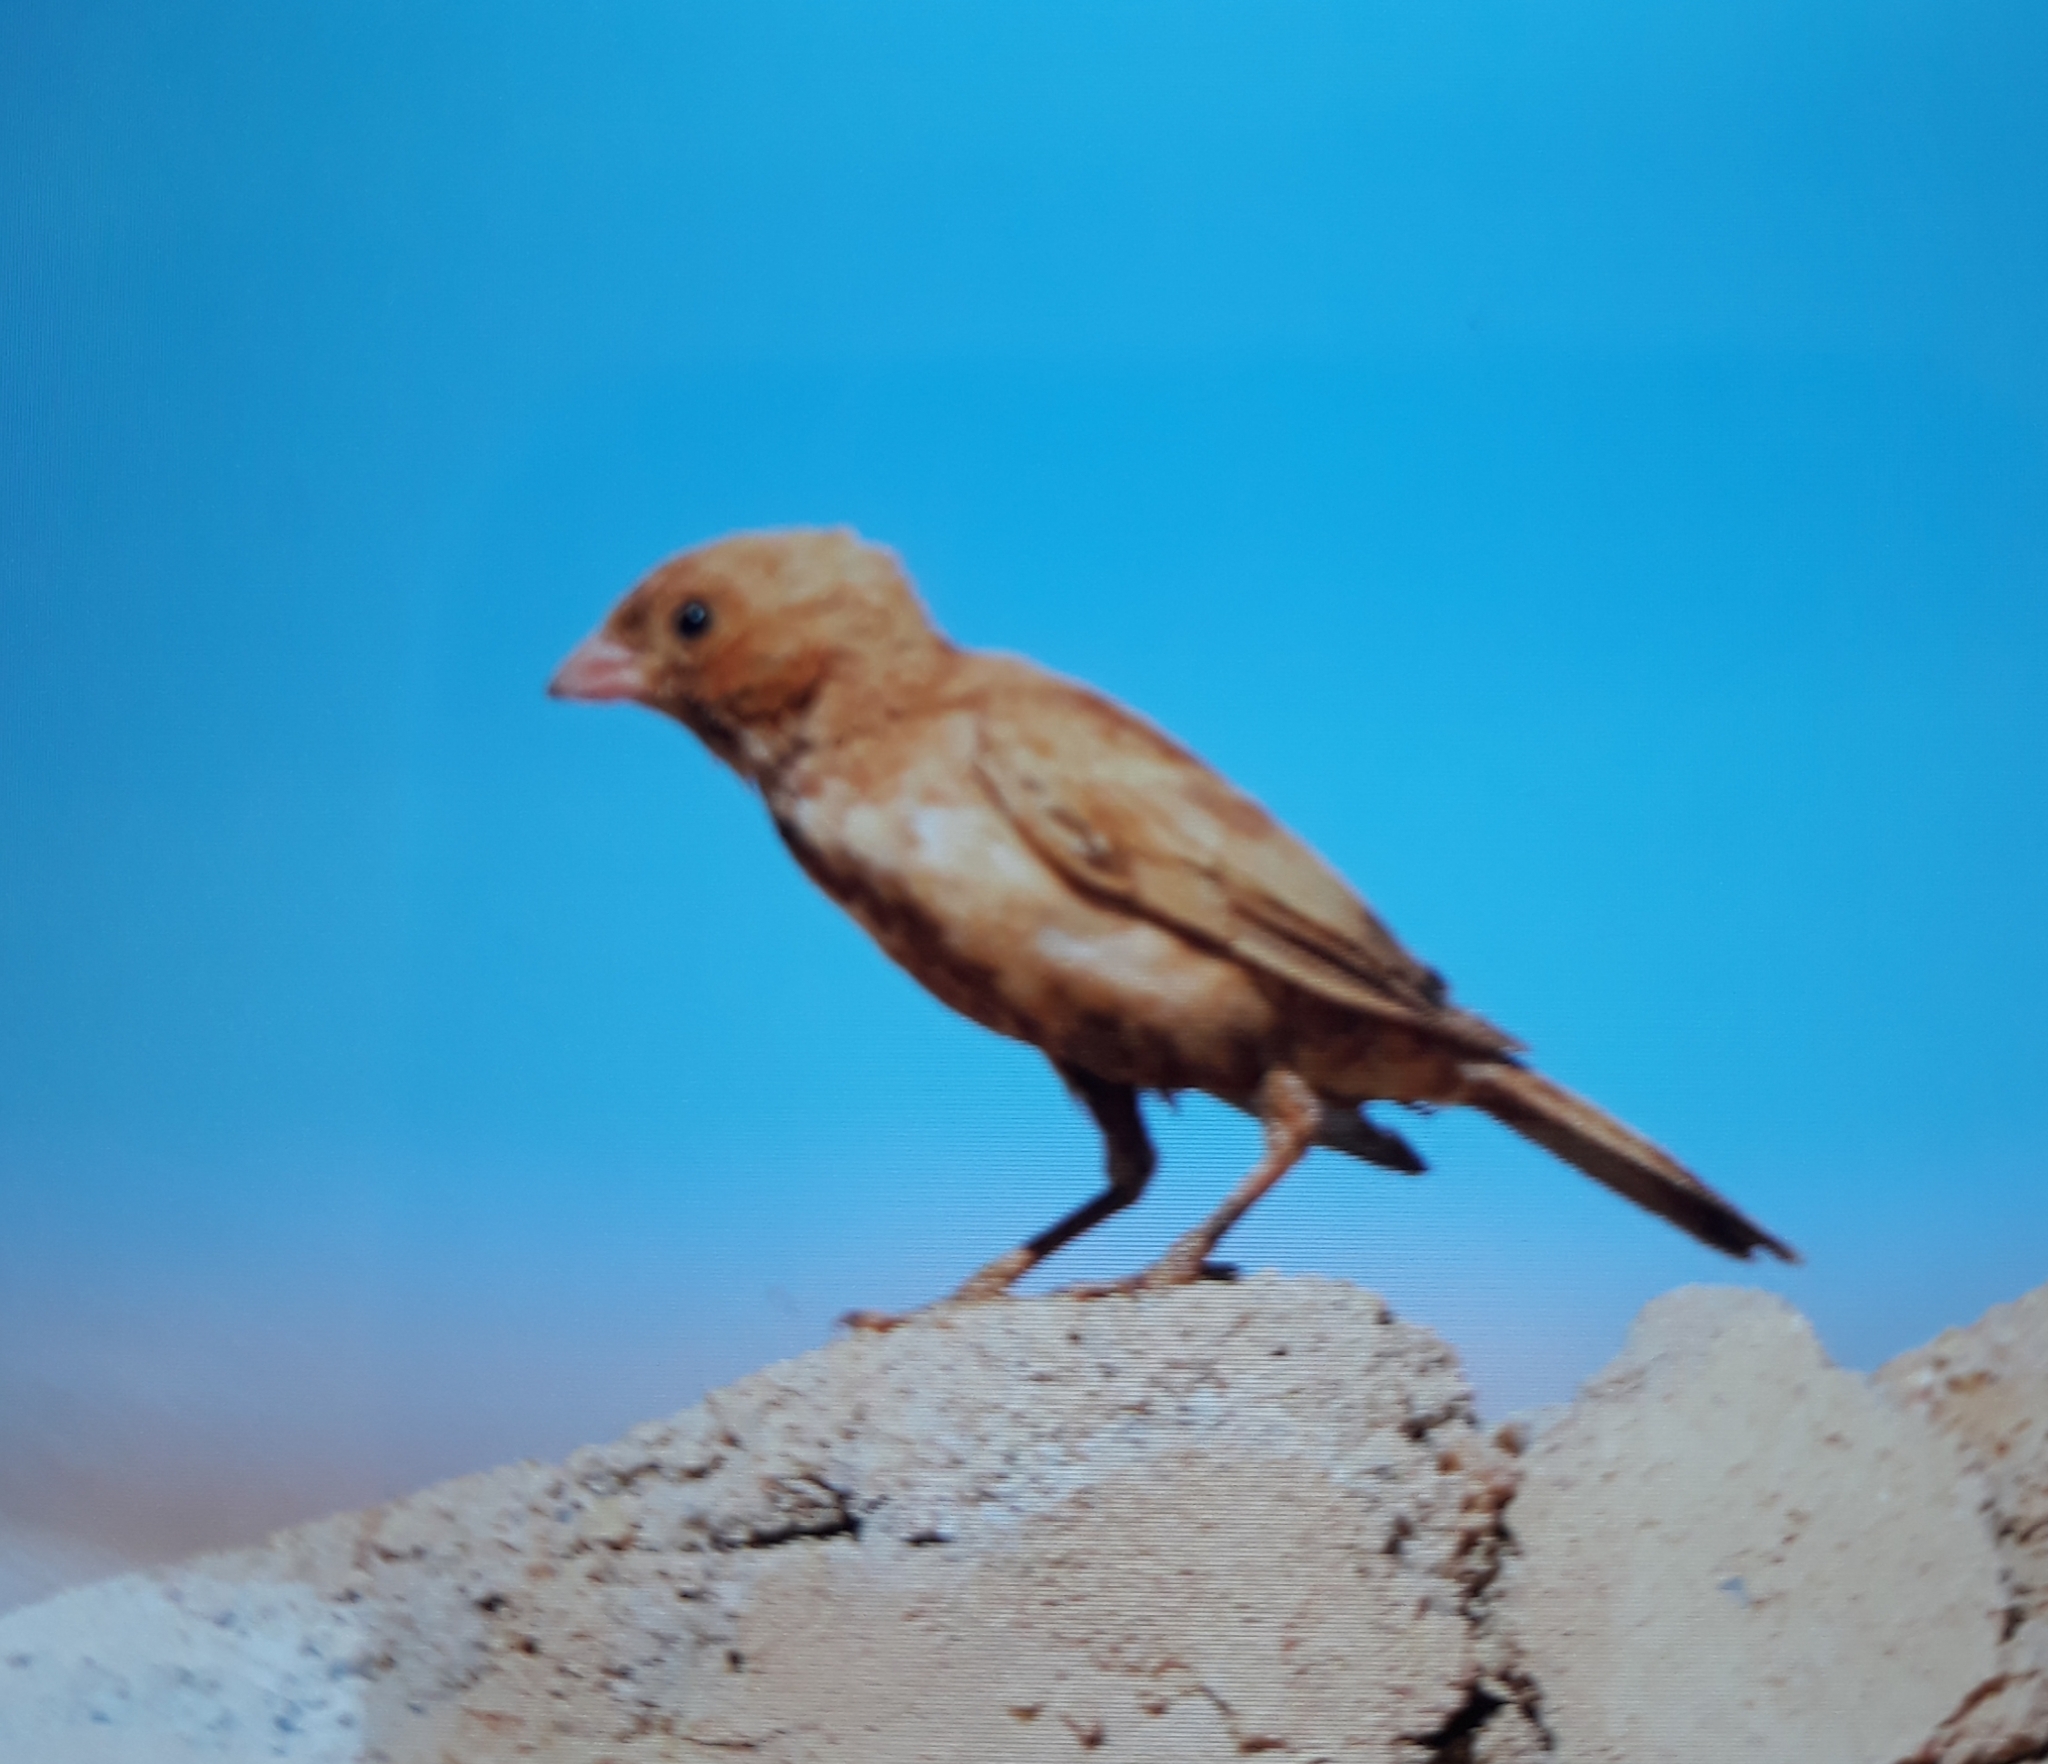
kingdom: Animalia
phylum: Chordata
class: Aves
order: Passeriformes
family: Fringillidae
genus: Bucanetes
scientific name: Bucanetes githagineus
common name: Trumpeter finch
